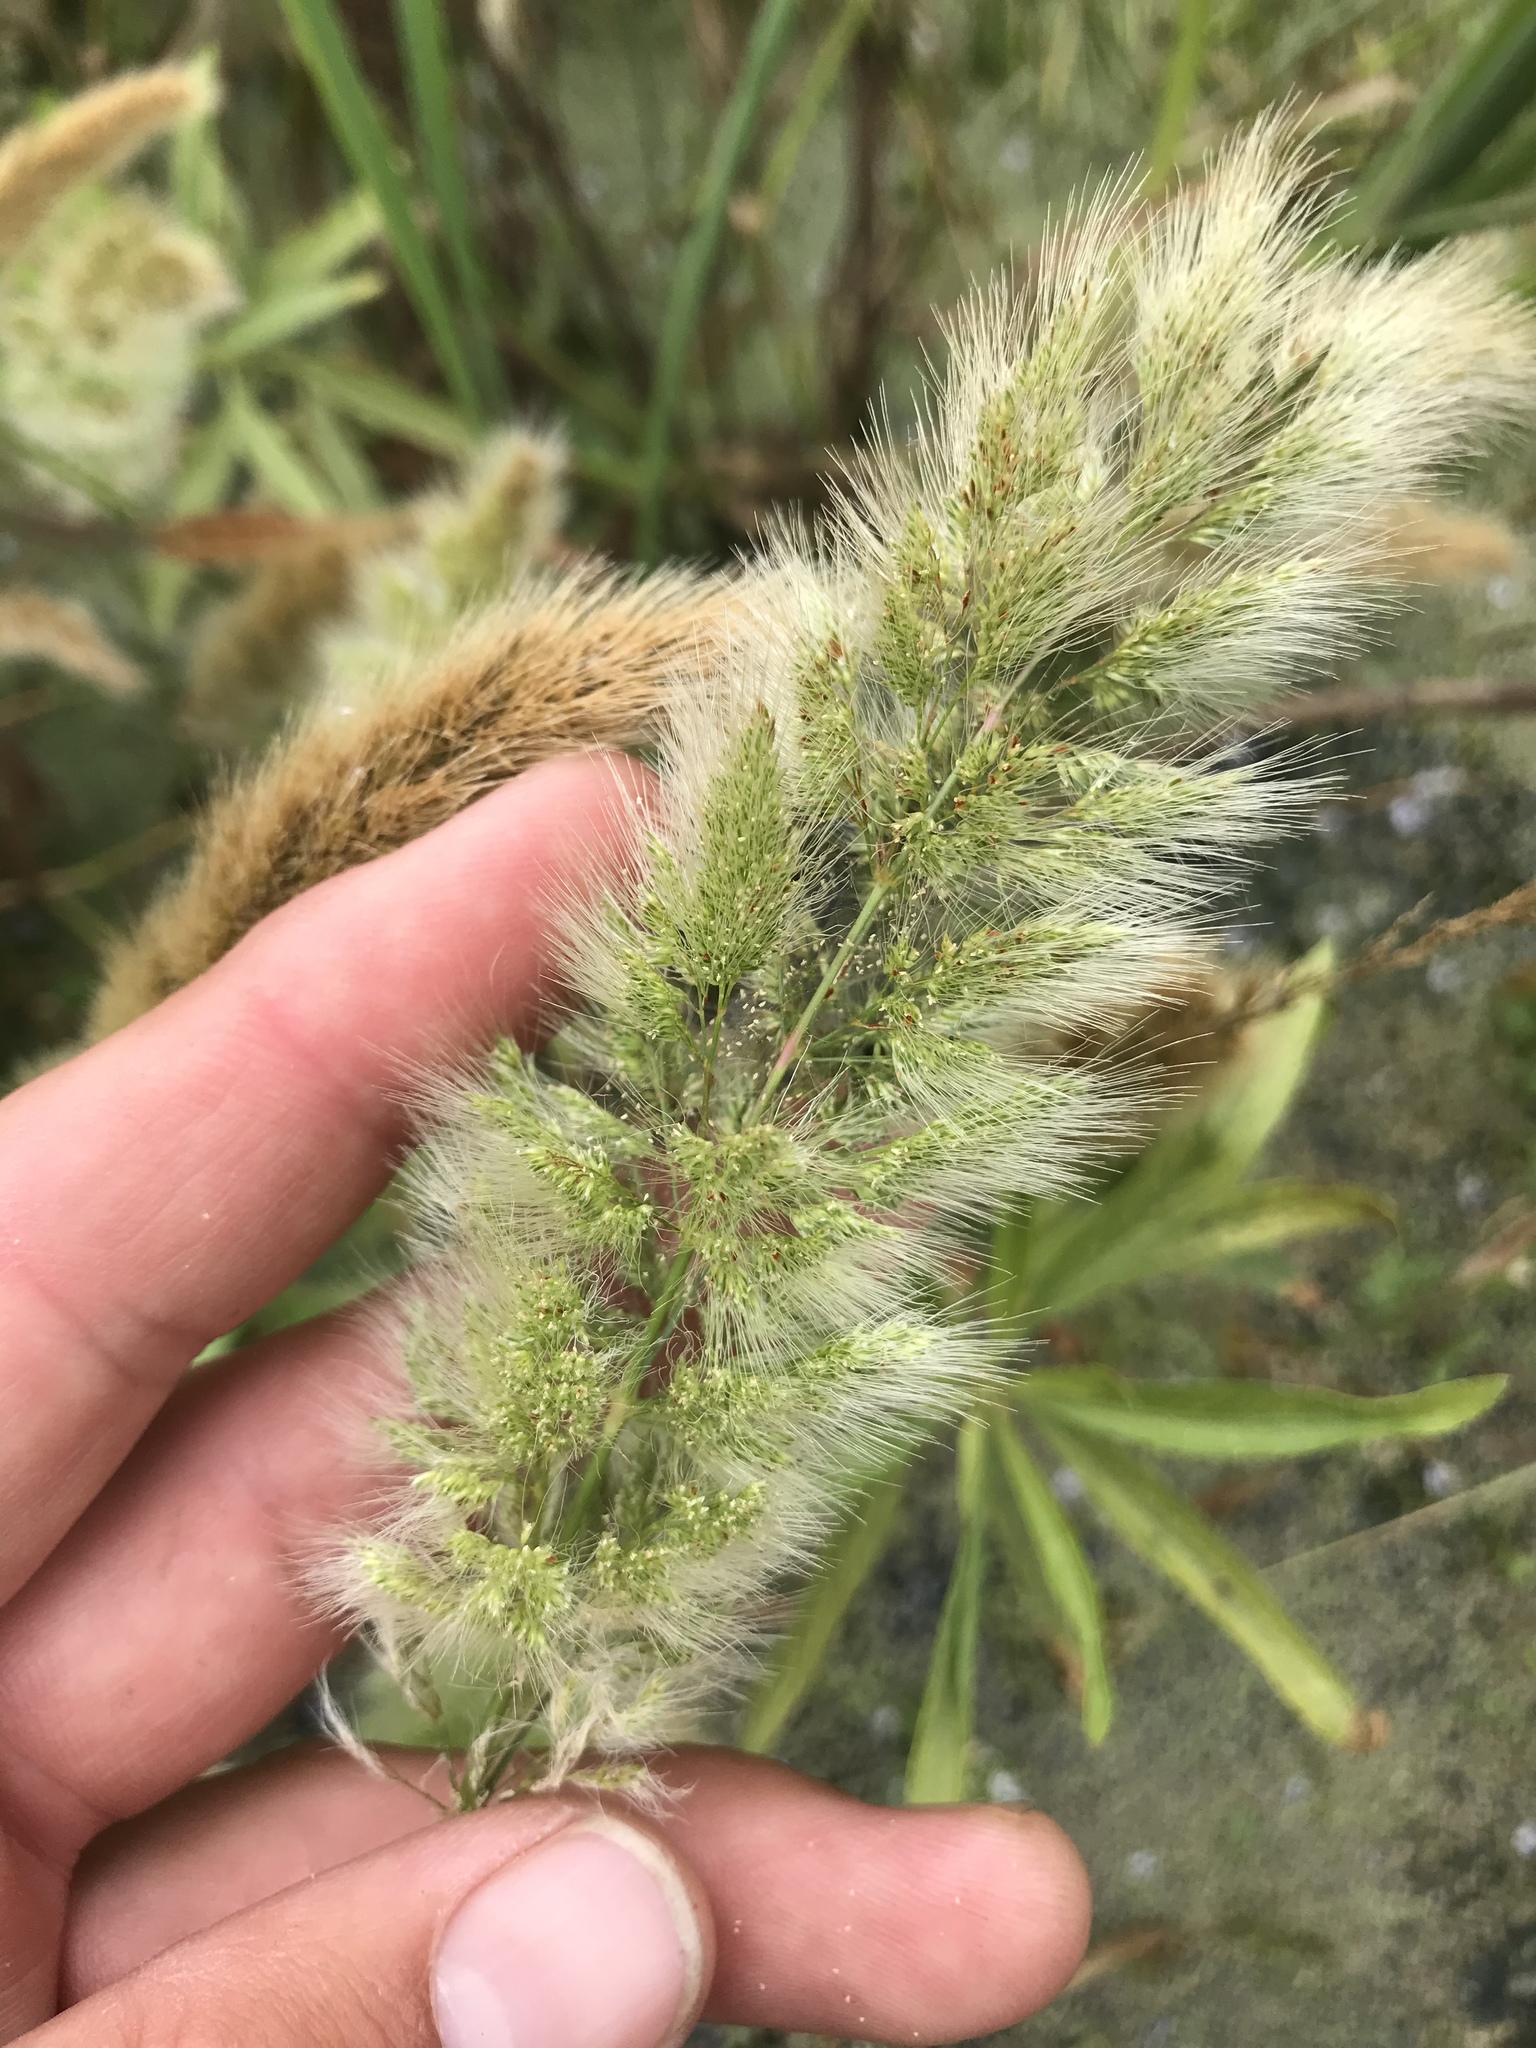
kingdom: Plantae
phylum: Tracheophyta
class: Liliopsida
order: Poales
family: Poaceae
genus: Polypogon
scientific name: Polypogon monspeliensis
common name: Annual rabbitsfoot grass
